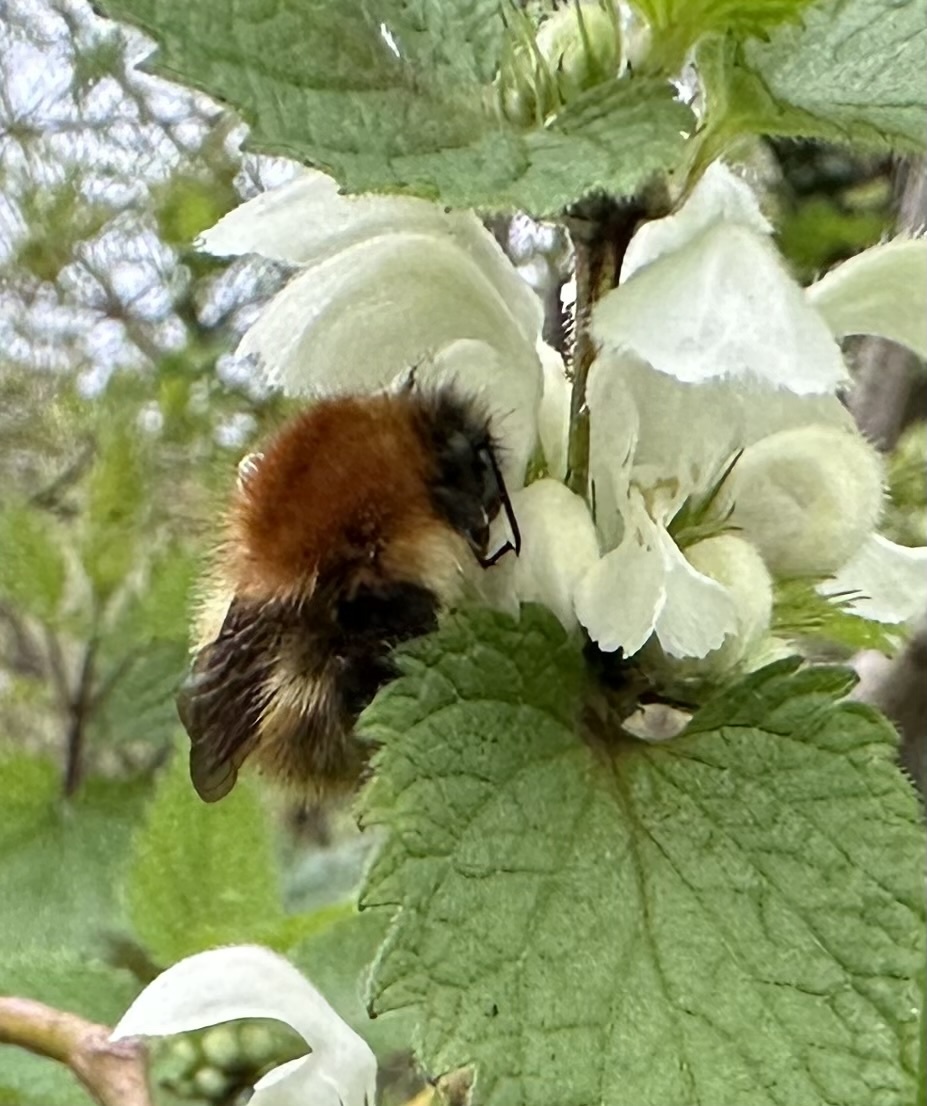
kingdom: Animalia
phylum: Arthropoda
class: Insecta
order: Hymenoptera
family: Apidae
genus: Bombus
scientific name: Bombus pascuorum
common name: Common carder bee
